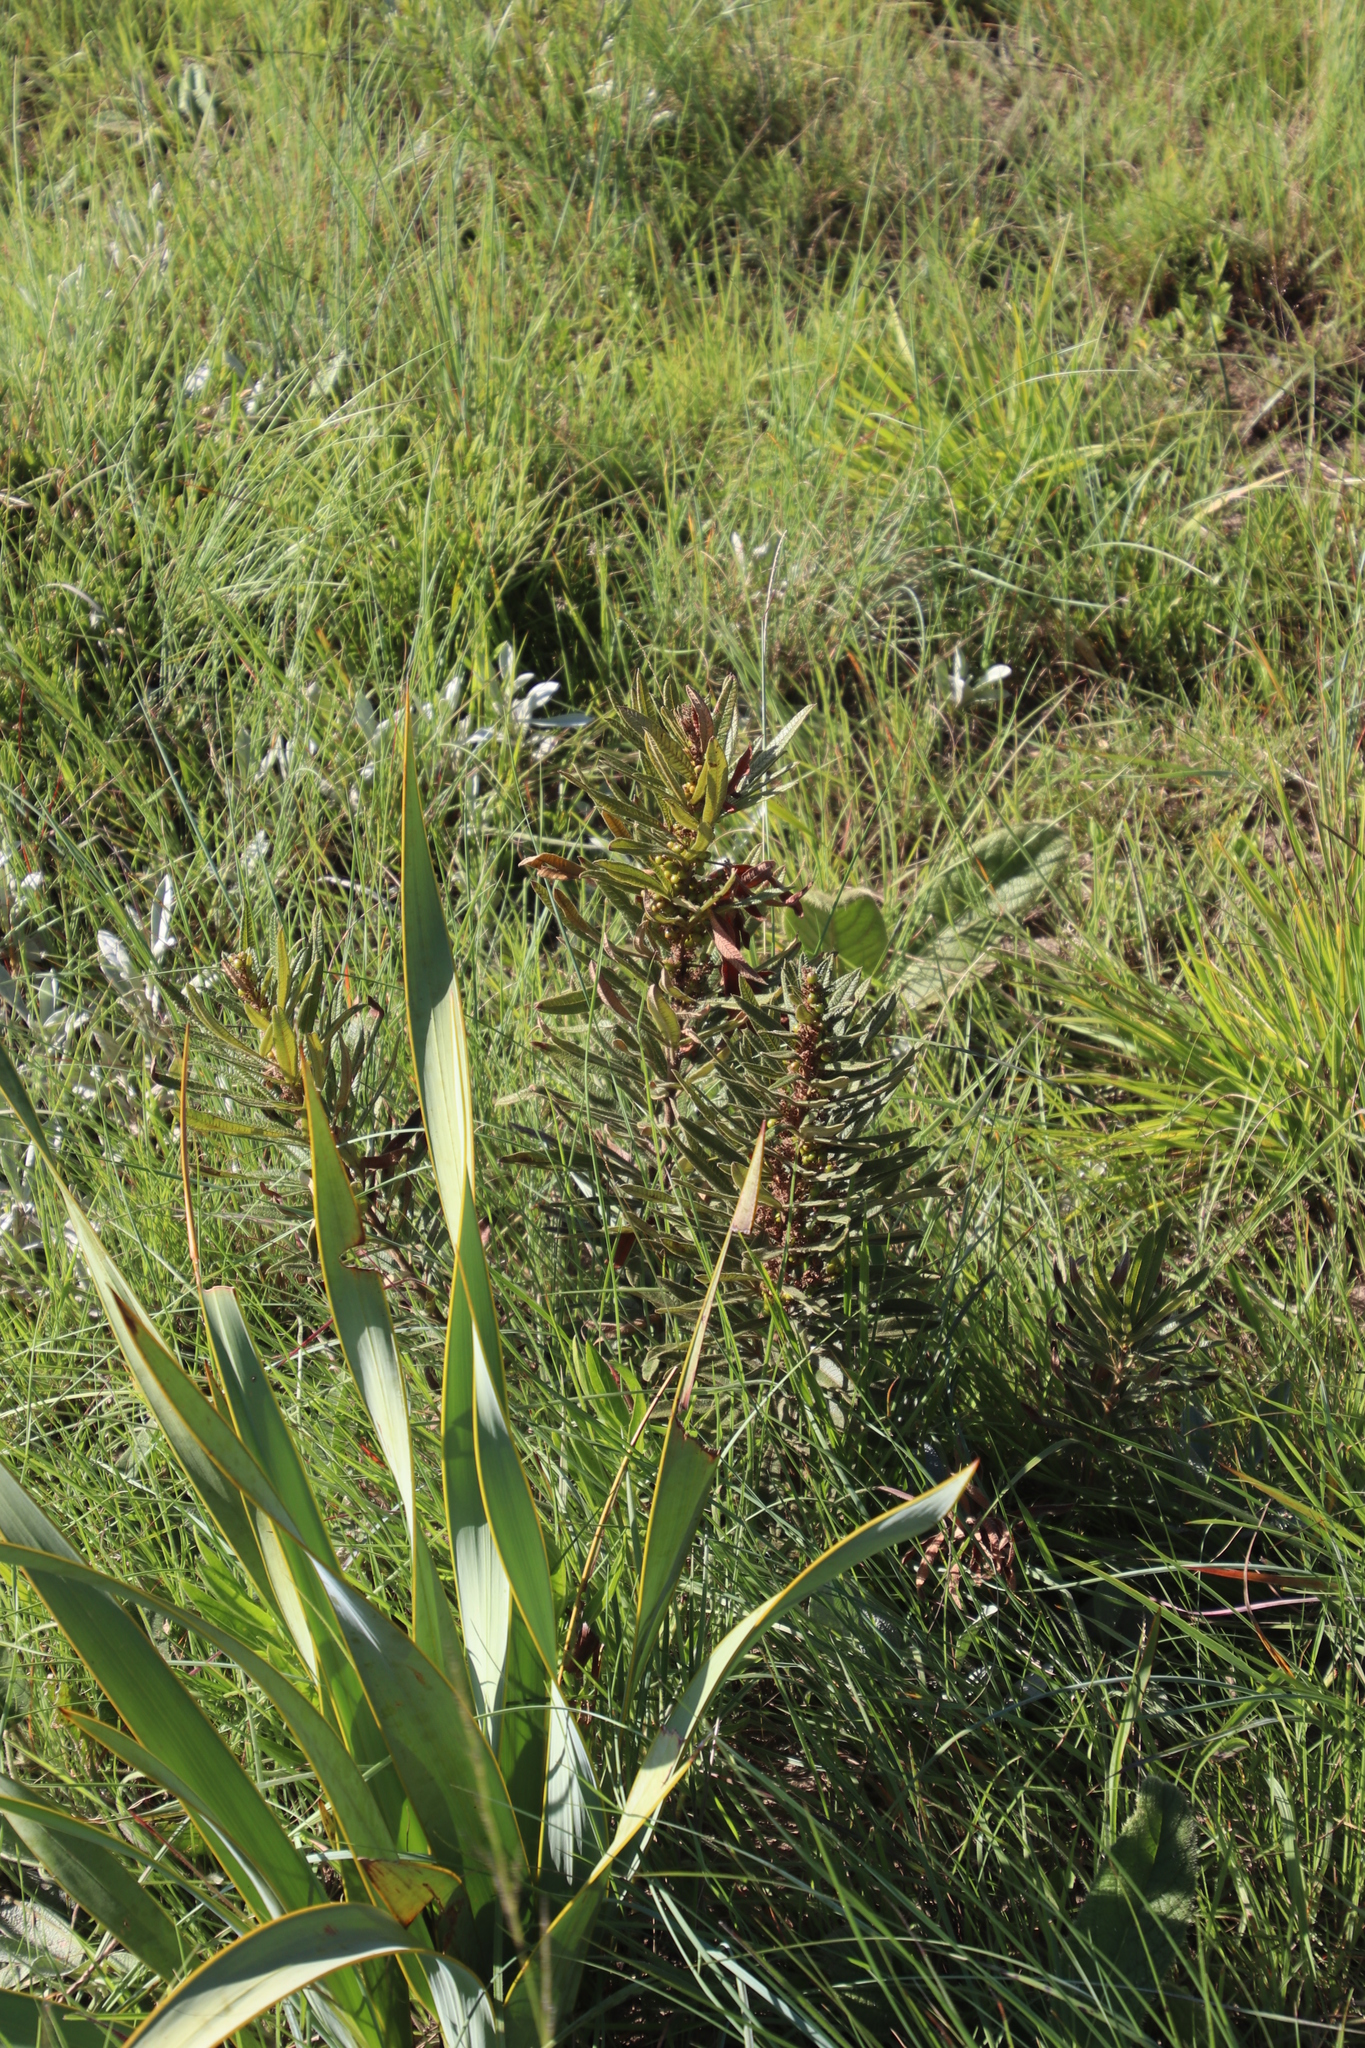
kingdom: Plantae
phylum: Tracheophyta
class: Magnoliopsida
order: Sapindales
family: Anacardiaceae
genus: Searsia
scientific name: Searsia discolor
